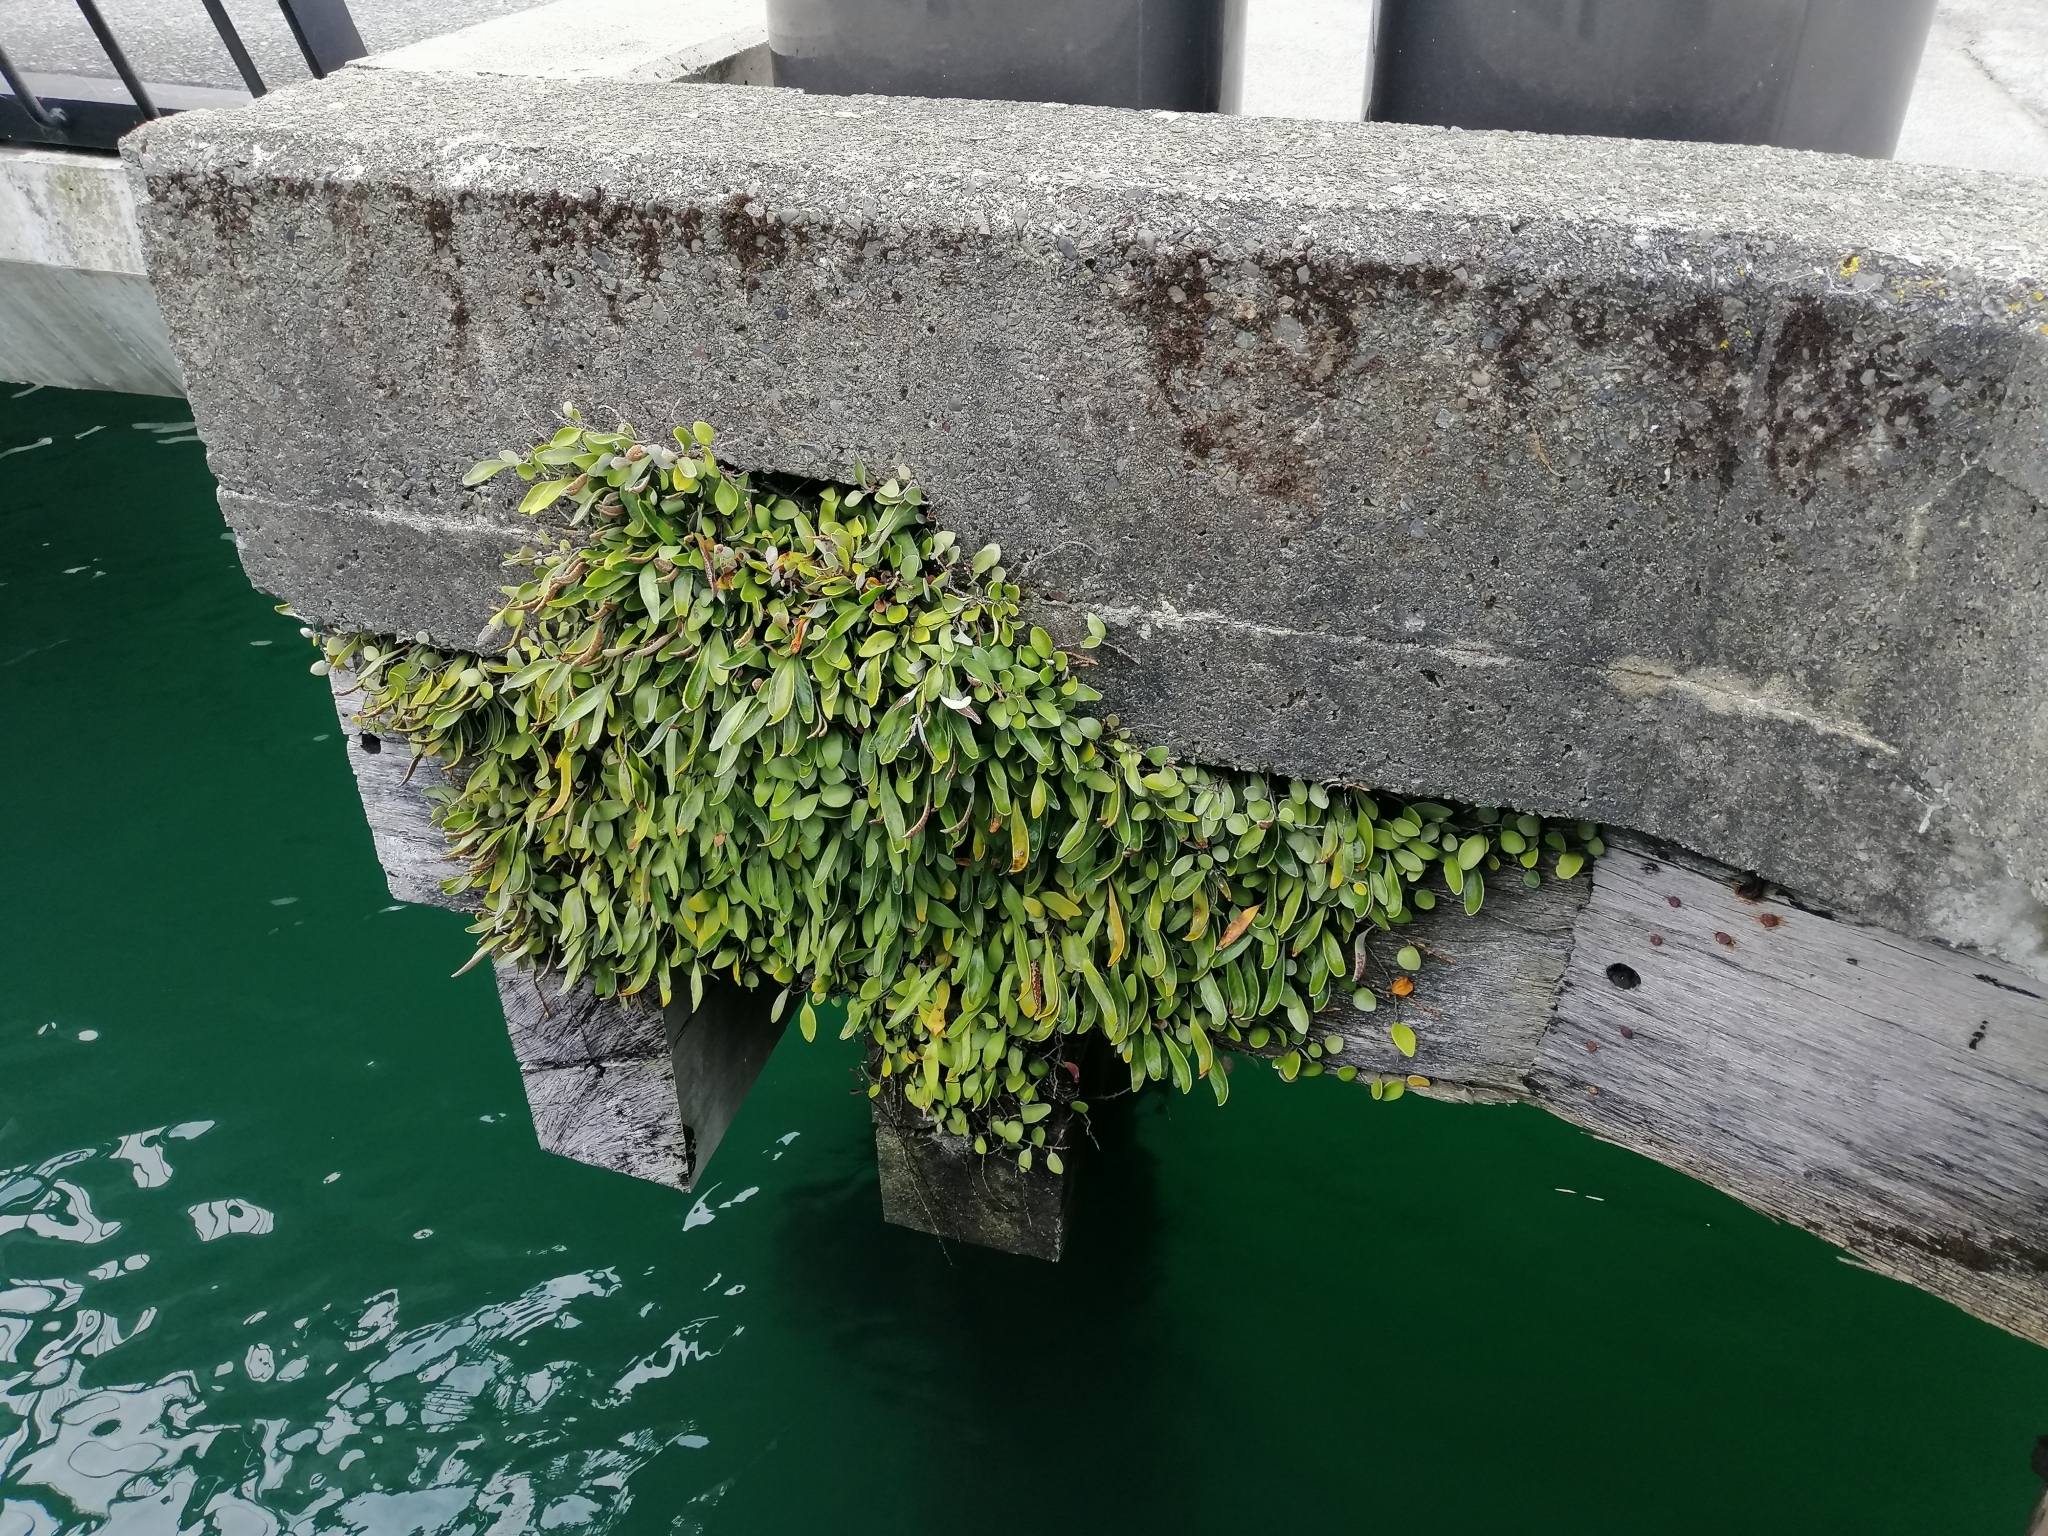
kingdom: Plantae
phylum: Tracheophyta
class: Polypodiopsida
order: Polypodiales
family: Polypodiaceae
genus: Pyrrosia
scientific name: Pyrrosia eleagnifolia
